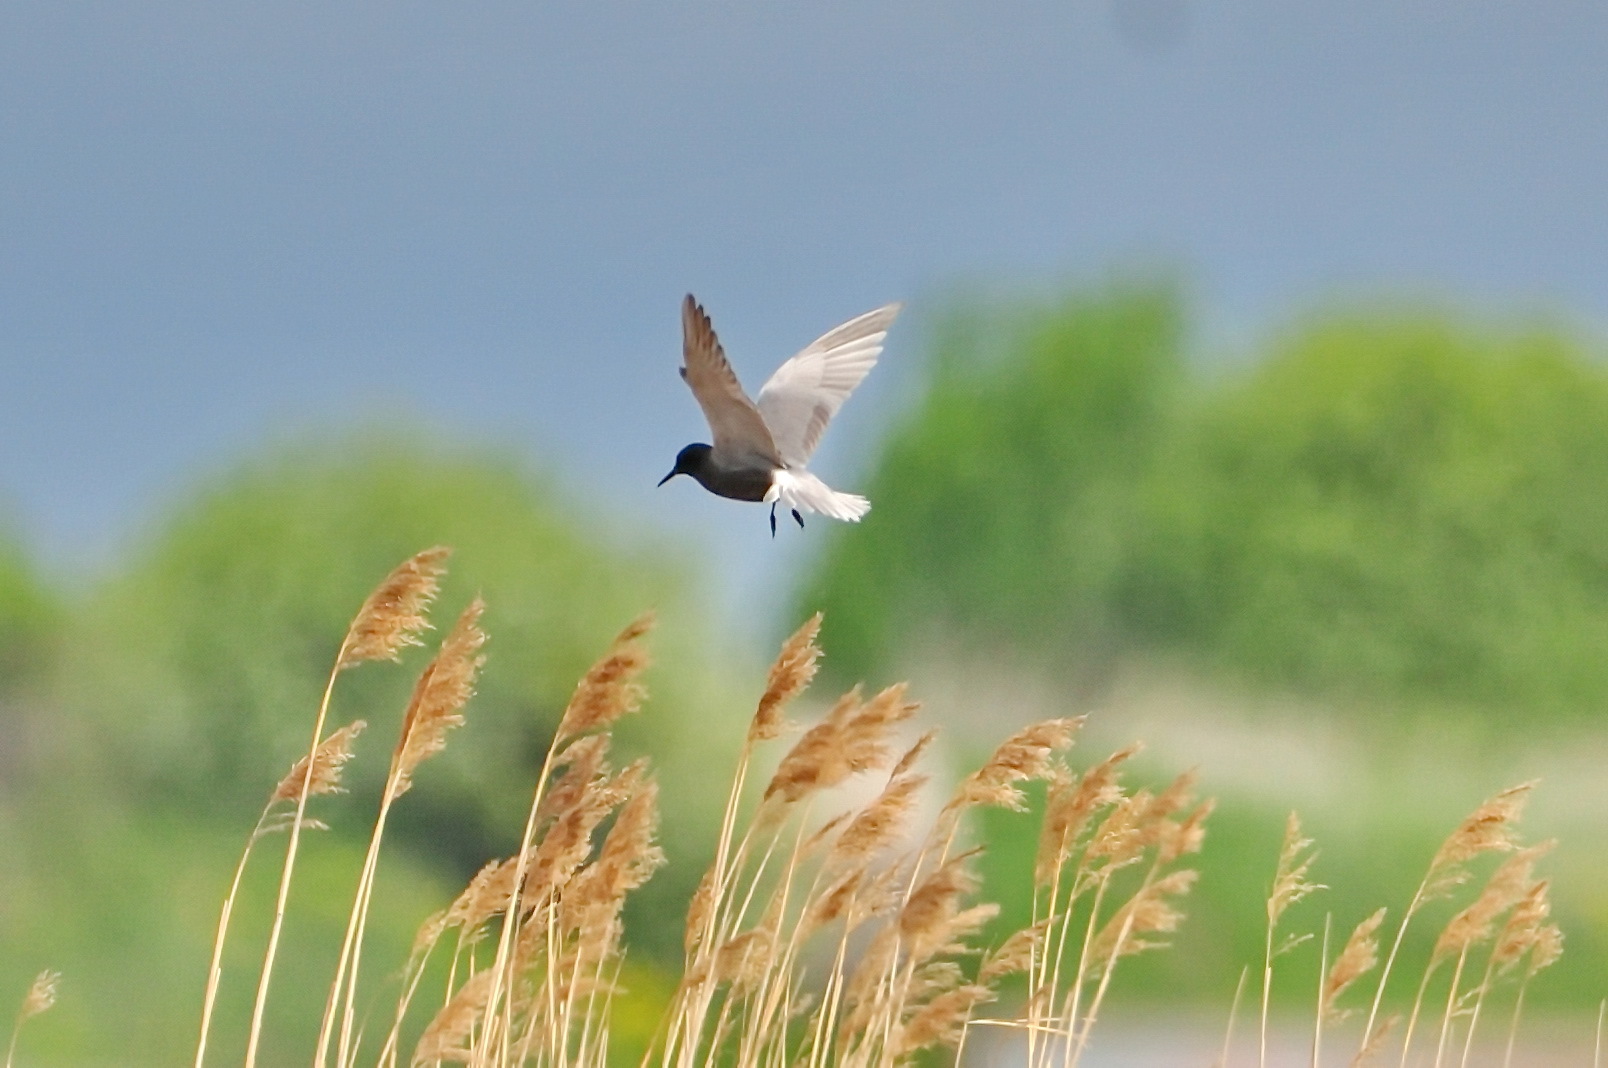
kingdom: Animalia
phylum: Chordata
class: Aves
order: Charadriiformes
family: Laridae
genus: Chlidonias
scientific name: Chlidonias niger
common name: Black tern
